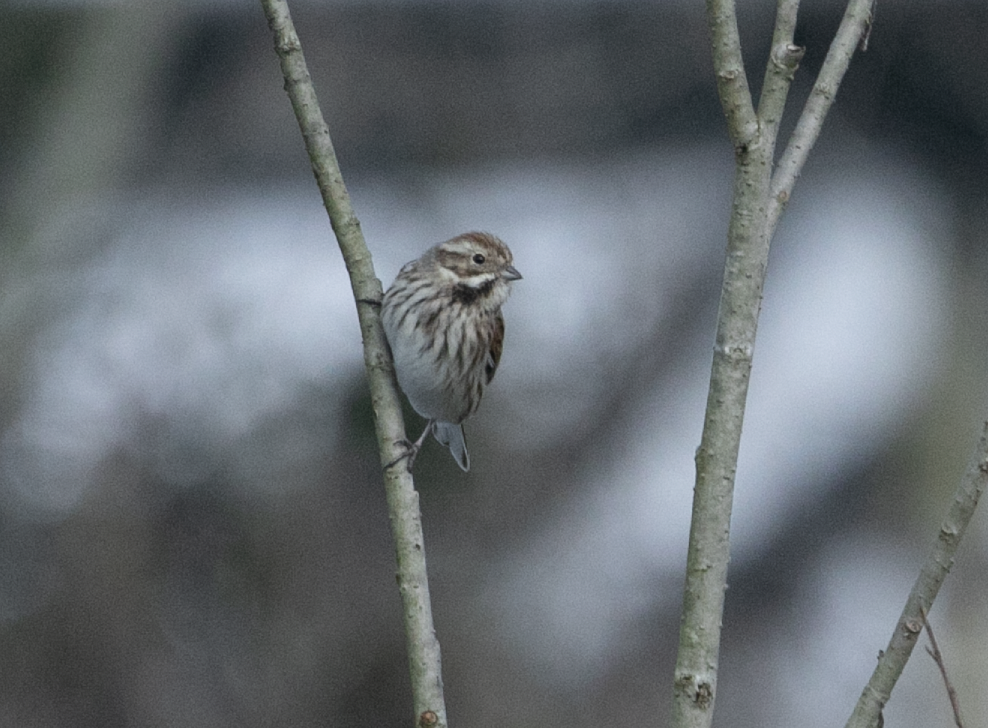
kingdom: Animalia
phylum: Chordata
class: Aves
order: Passeriformes
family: Emberizidae
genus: Emberiza
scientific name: Emberiza schoeniclus
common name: Reed bunting
